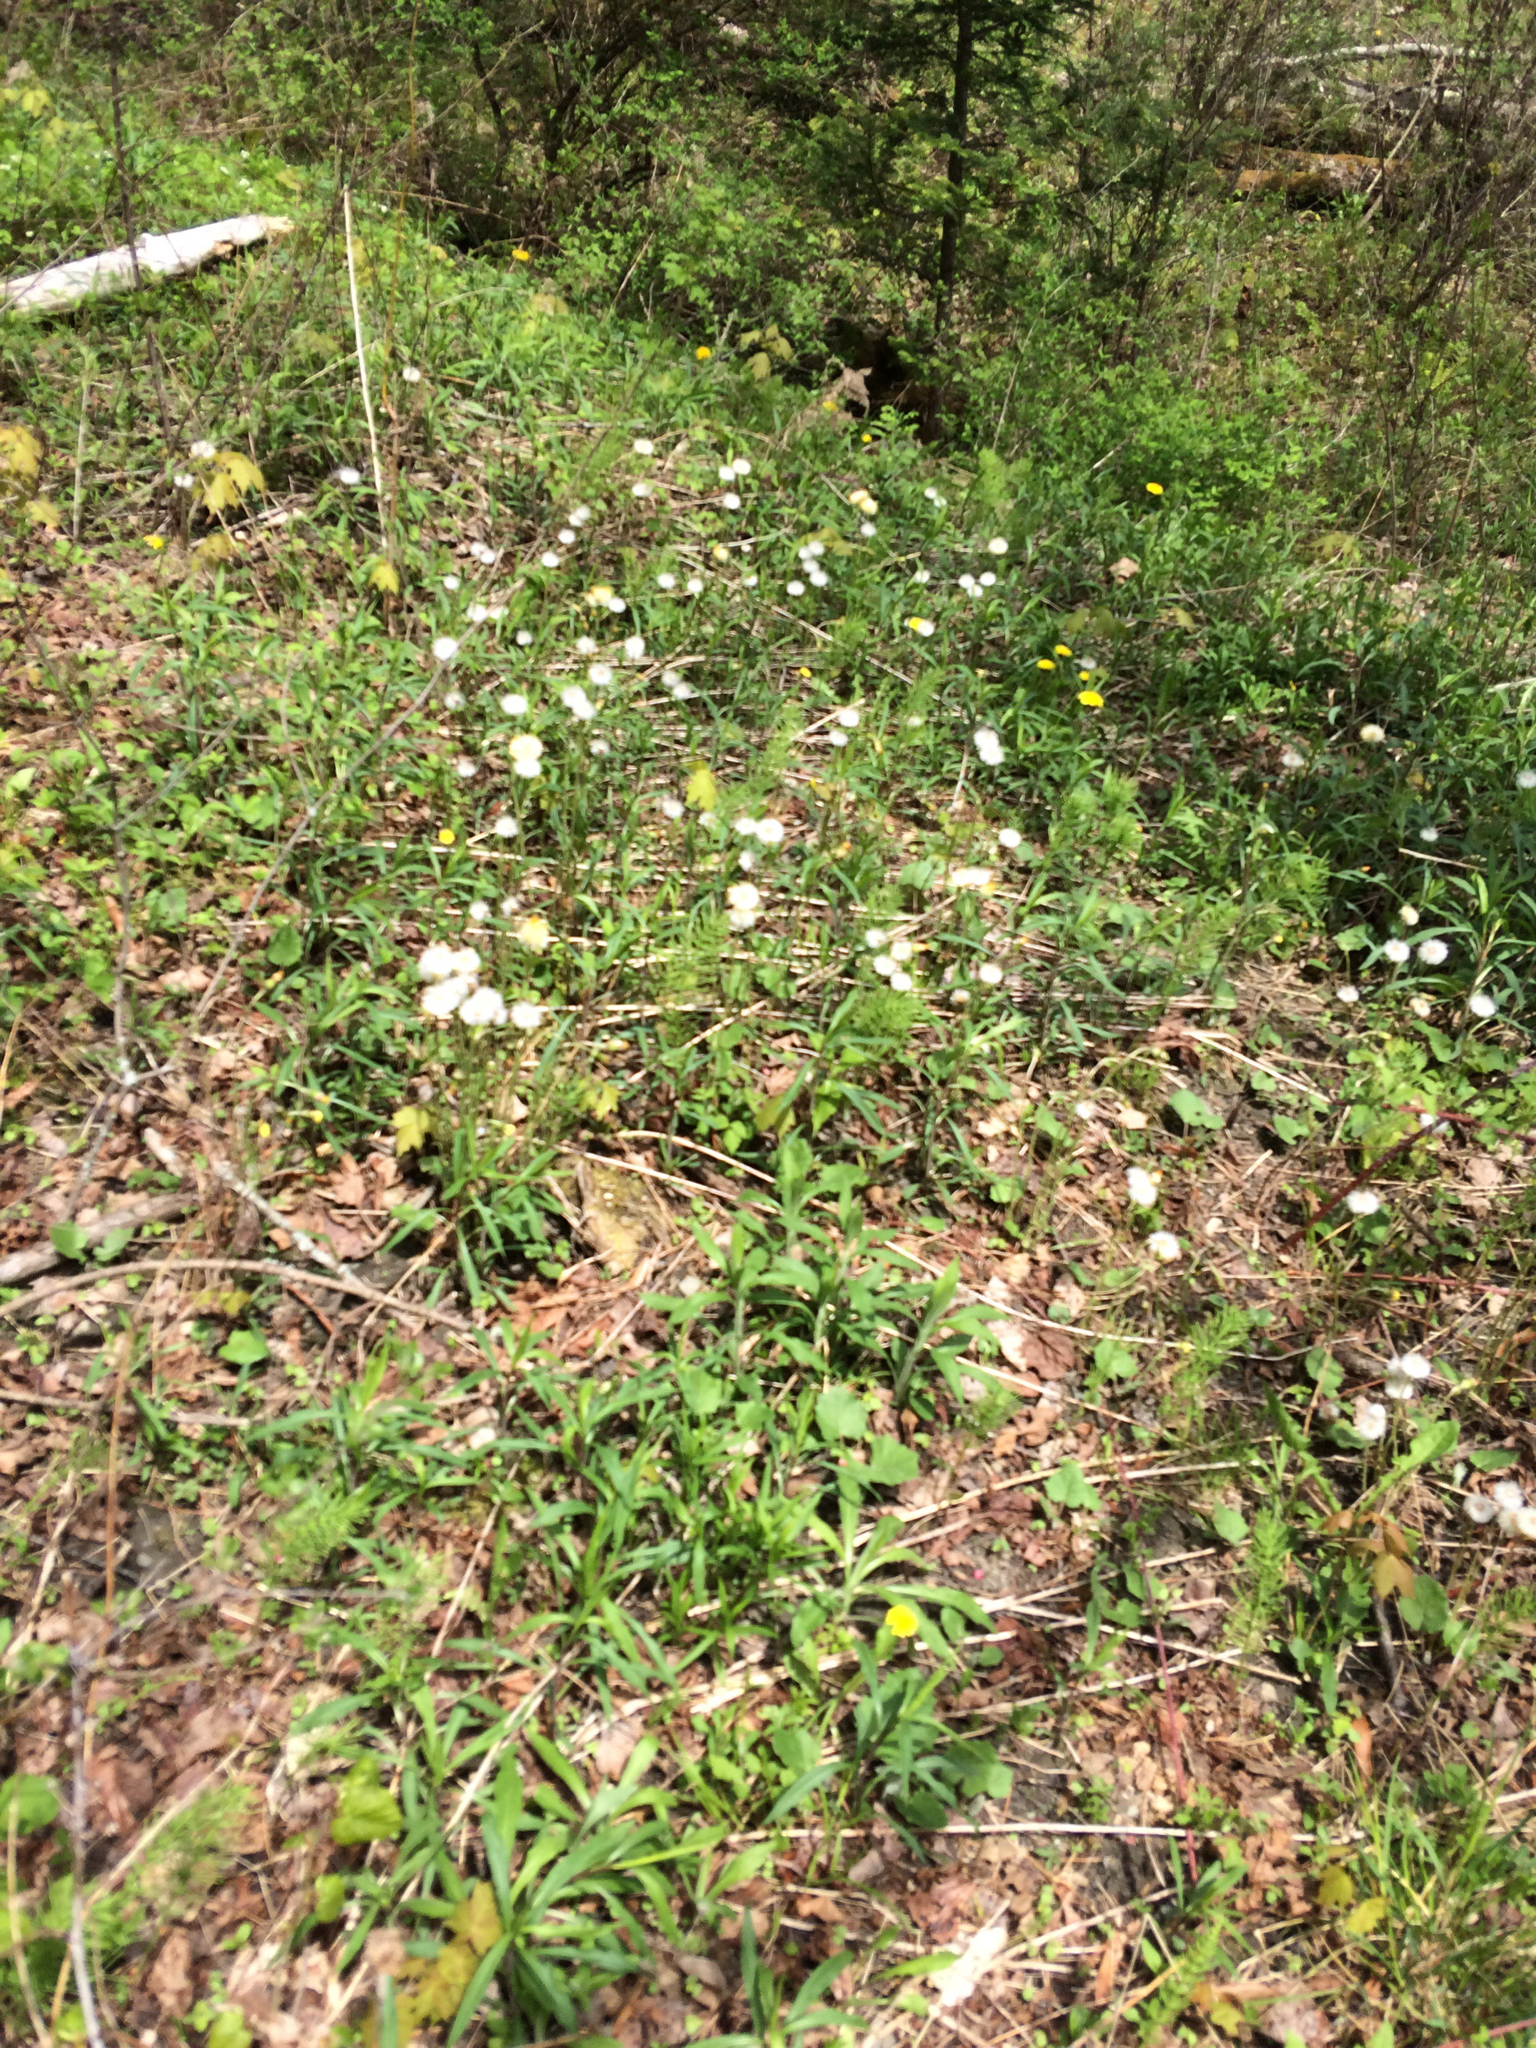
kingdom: Plantae
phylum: Tracheophyta
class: Magnoliopsida
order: Asterales
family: Asteraceae
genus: Tussilago
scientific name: Tussilago farfara
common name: Coltsfoot
